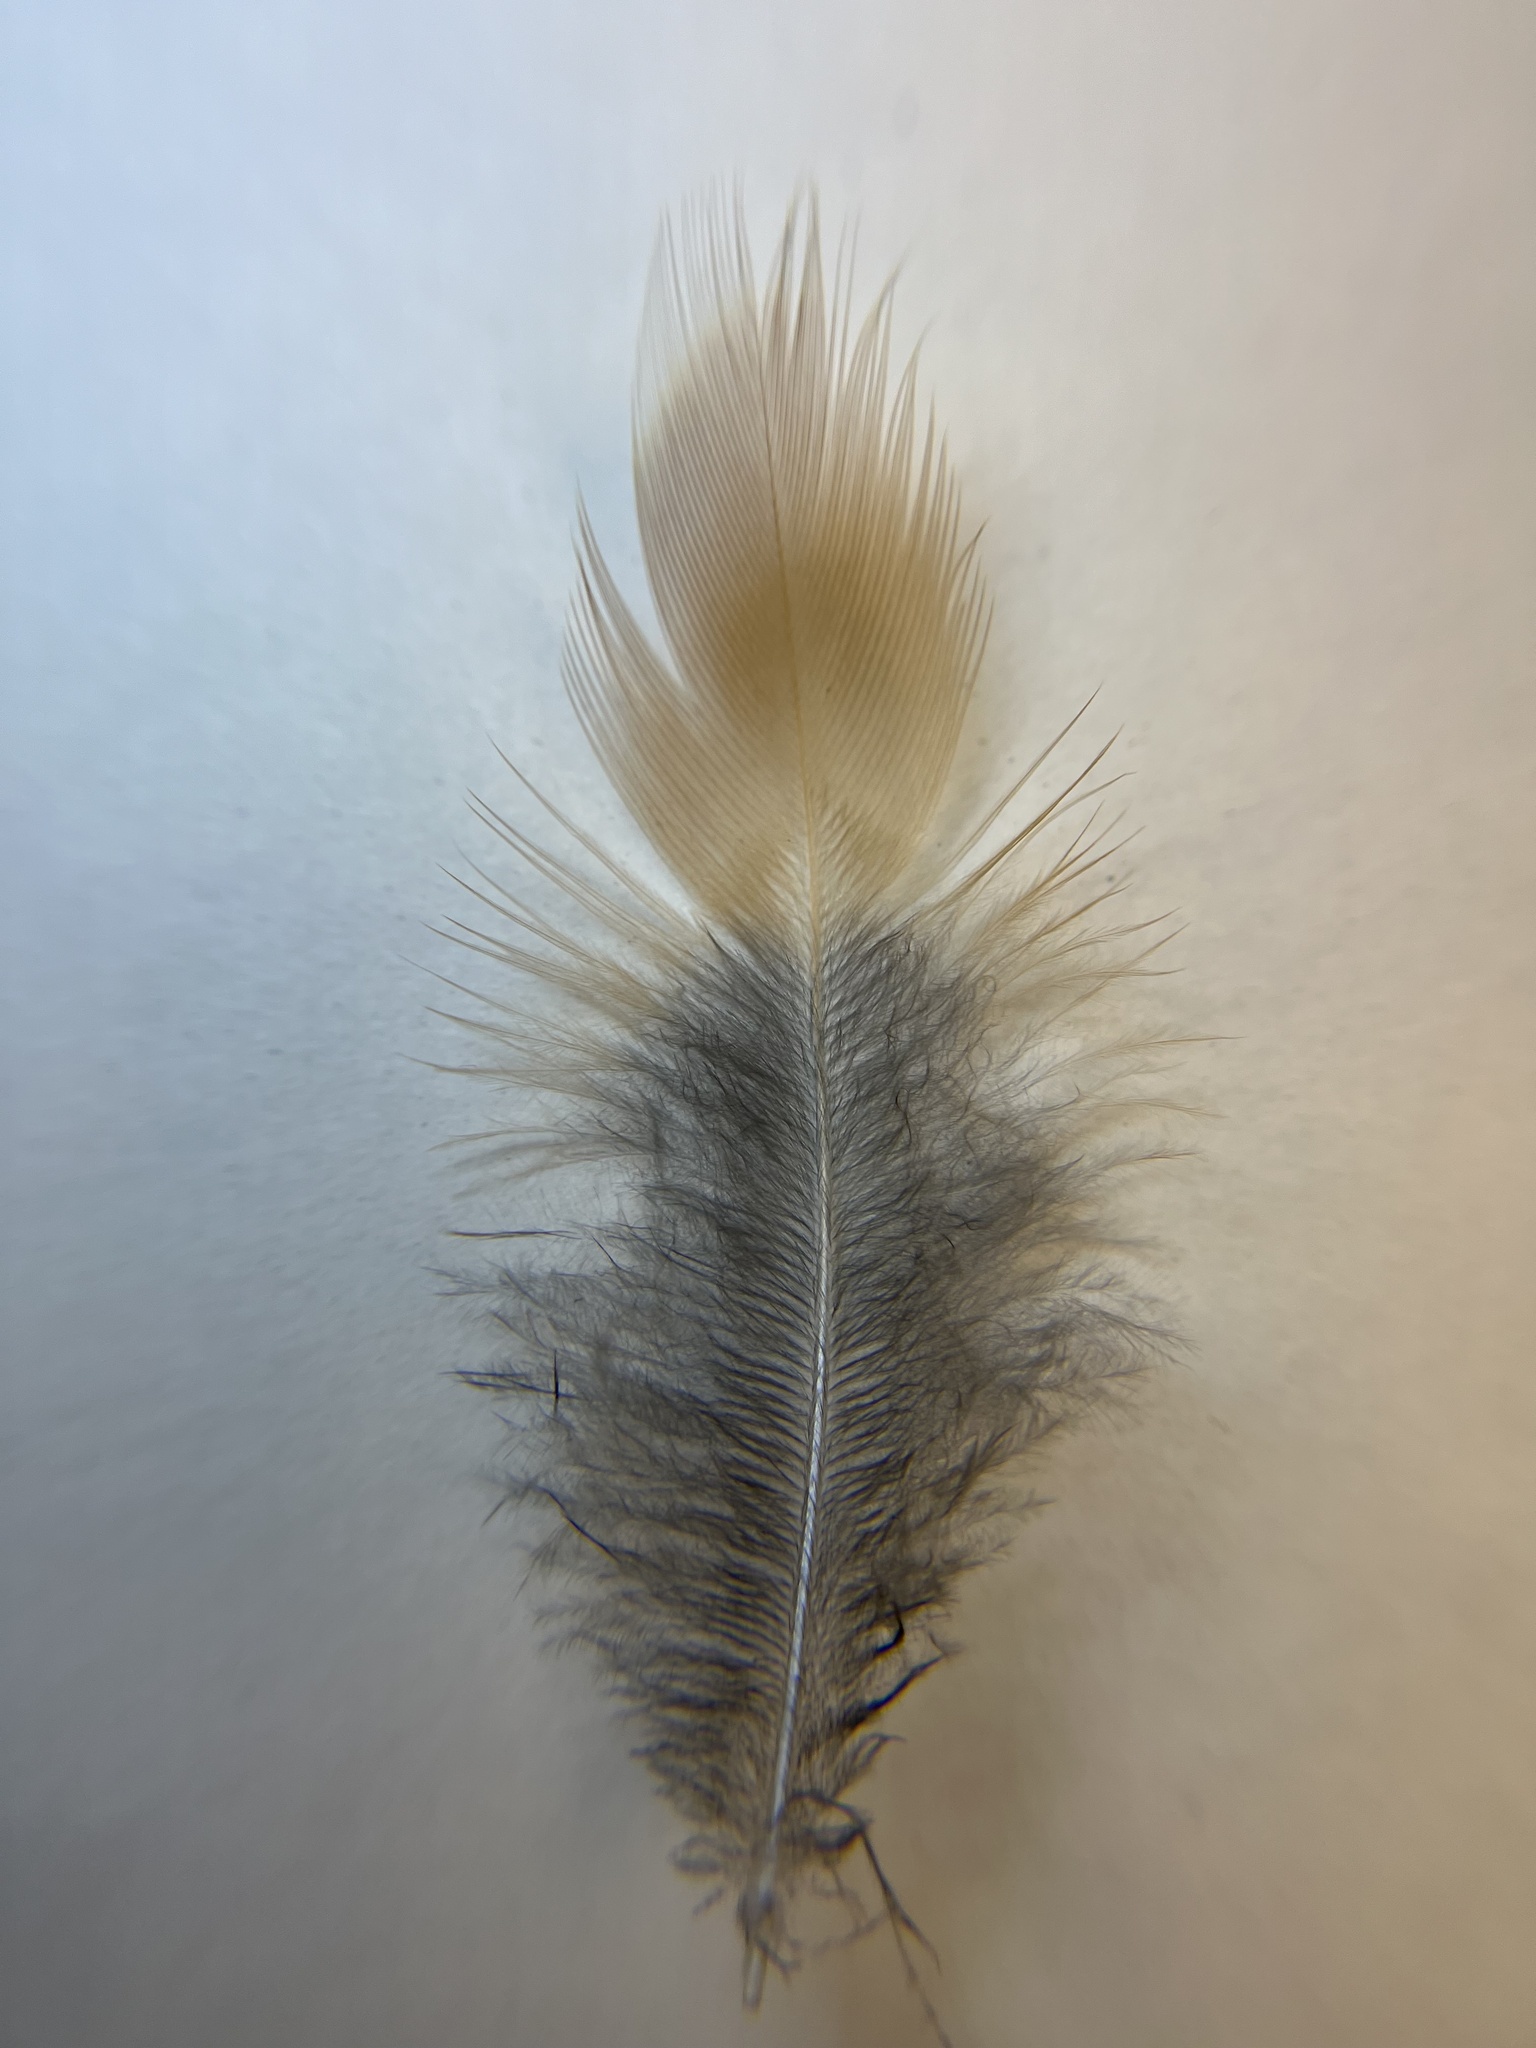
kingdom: Animalia
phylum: Chordata
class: Aves
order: Passeriformes
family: Turdidae
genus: Turdus
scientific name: Turdus migratorius
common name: American robin
